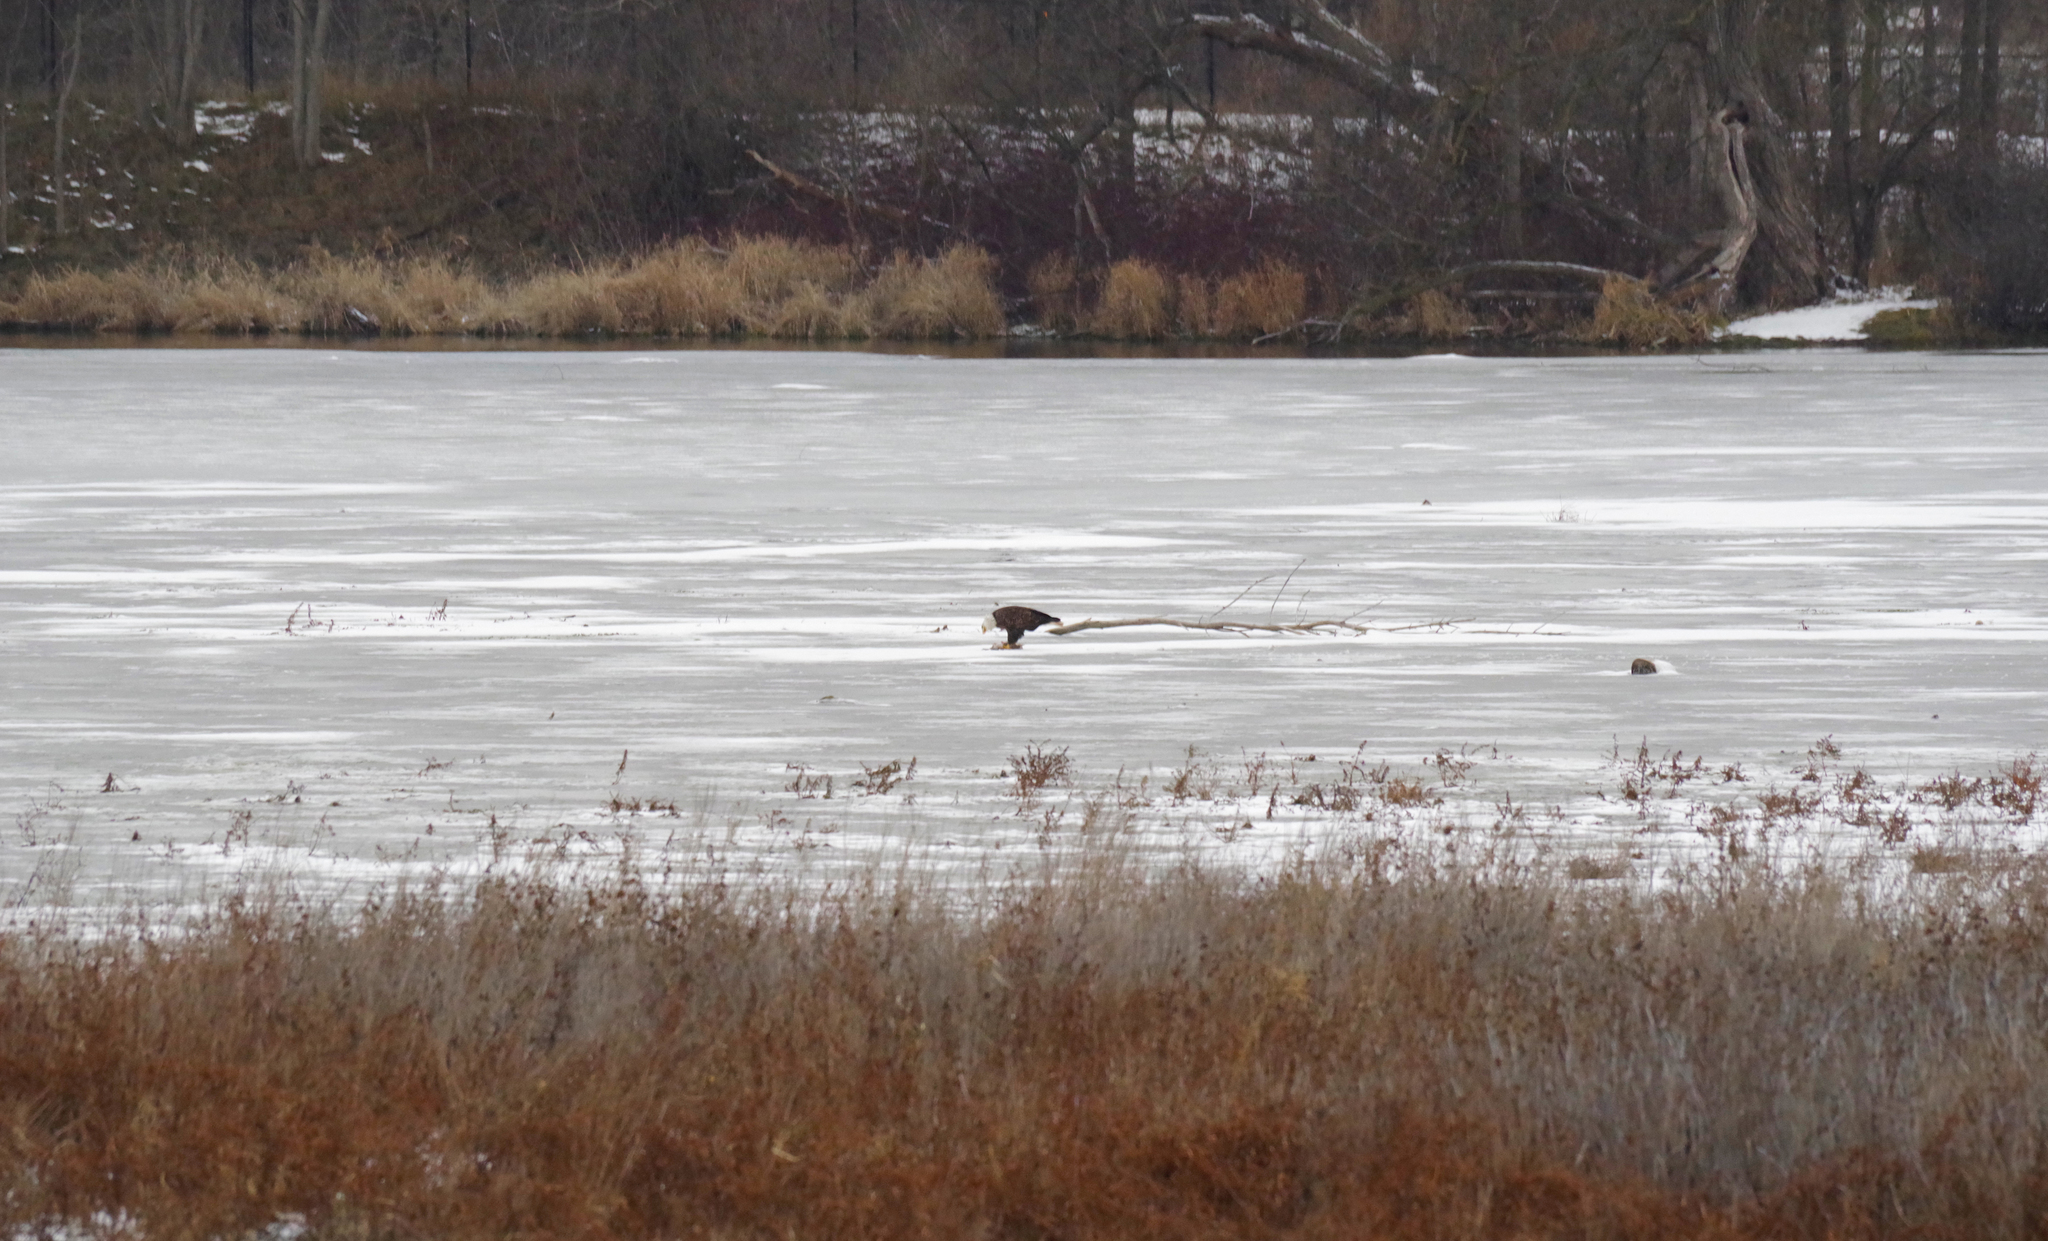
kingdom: Animalia
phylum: Chordata
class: Aves
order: Accipitriformes
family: Accipitridae
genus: Haliaeetus
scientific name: Haliaeetus leucocephalus
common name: Bald eagle
